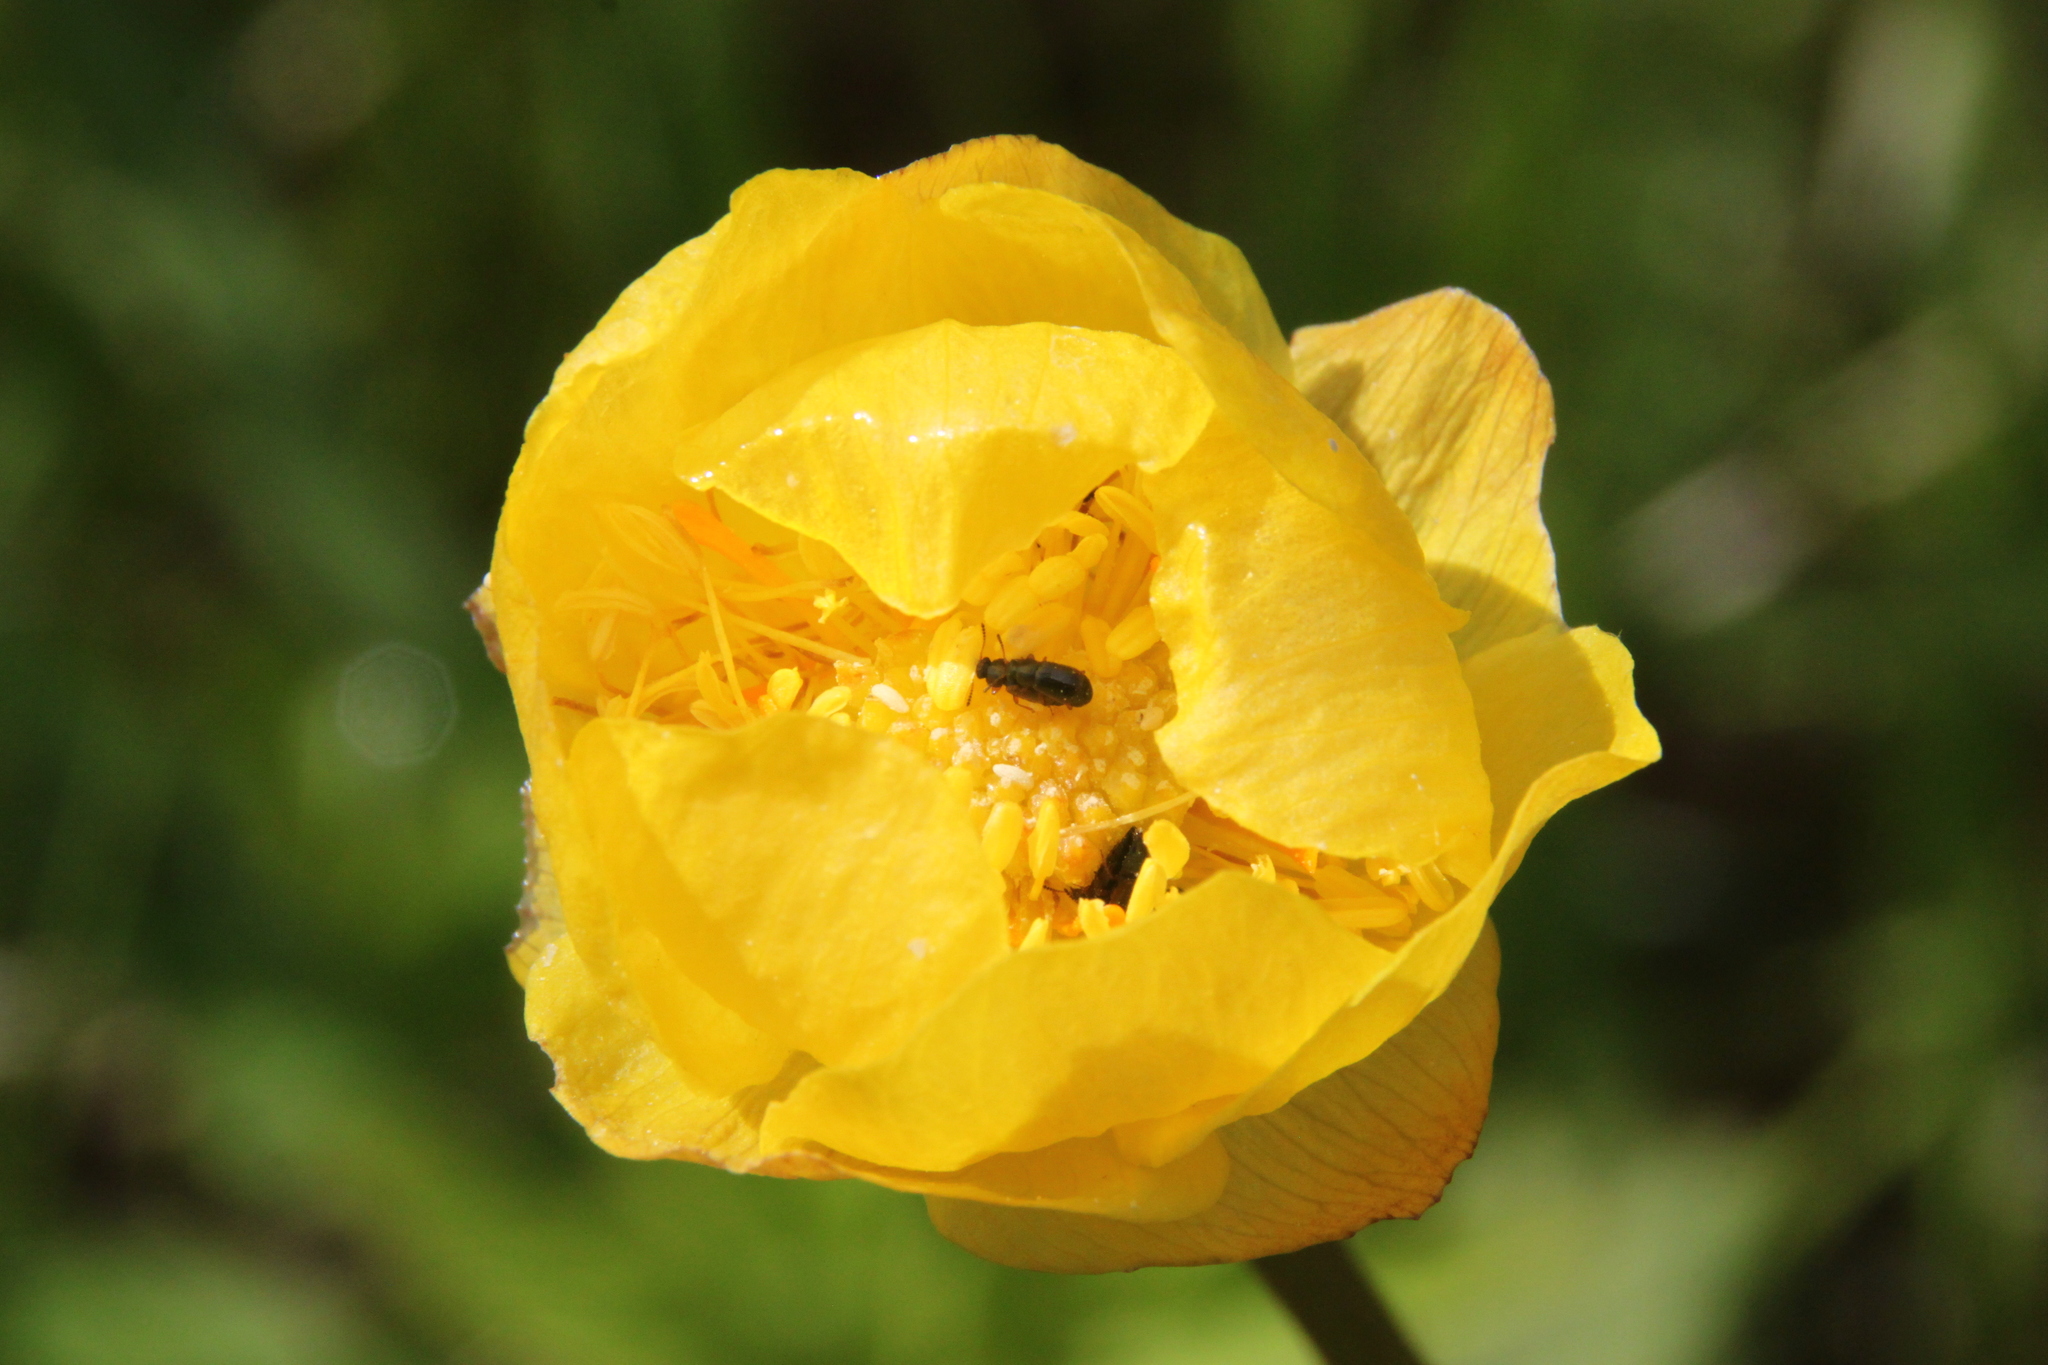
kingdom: Plantae
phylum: Tracheophyta
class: Magnoliopsida
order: Ranunculales
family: Ranunculaceae
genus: Trollius
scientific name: Trollius europaeus
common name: European globeflower
